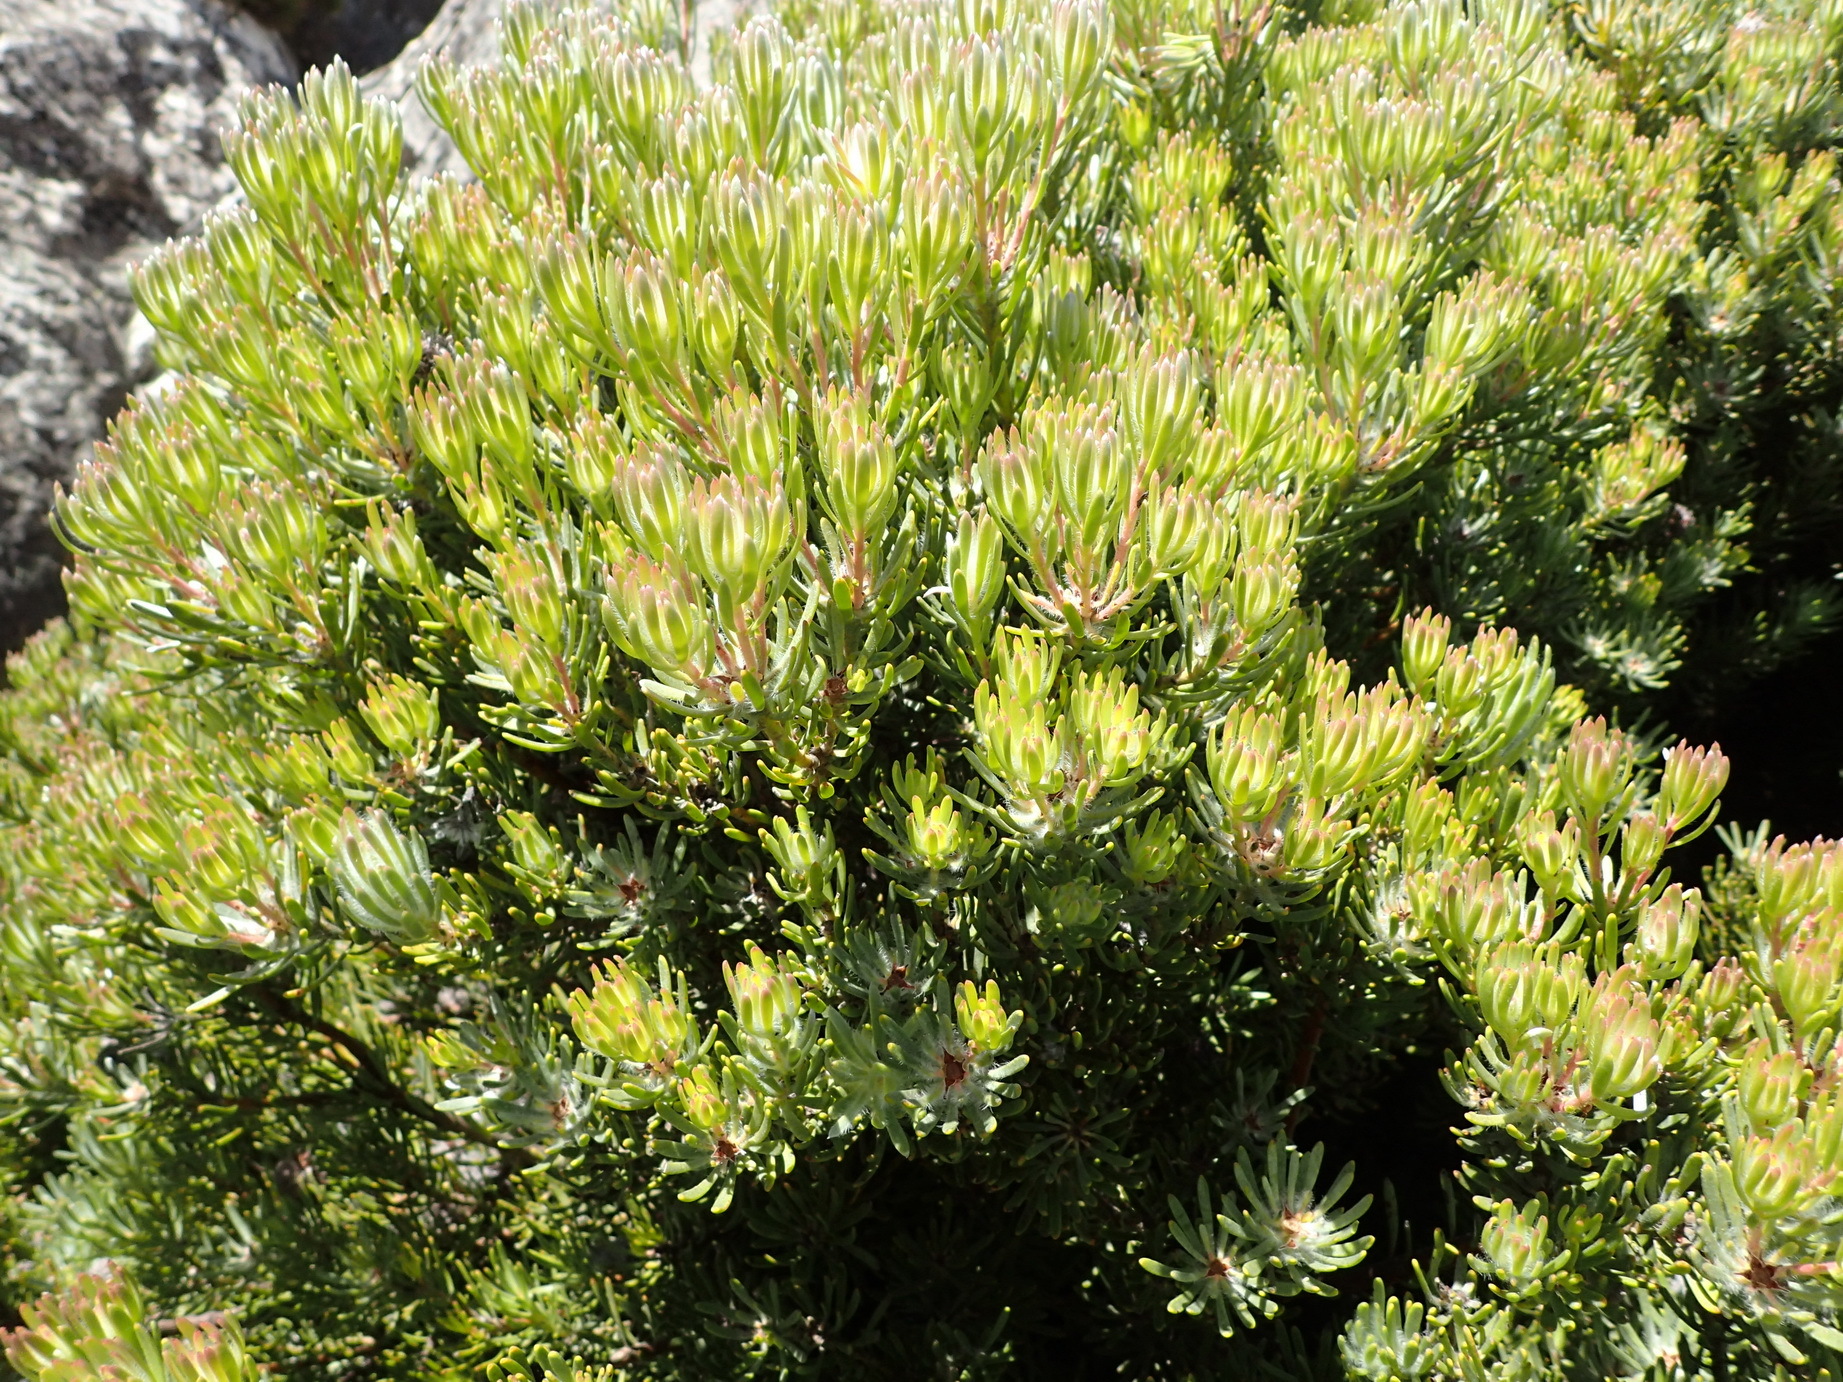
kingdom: Plantae
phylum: Tracheophyta
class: Magnoliopsida
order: Proteales
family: Proteaceae
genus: Leucadendron
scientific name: Leucadendron dregei
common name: Summit conebush
